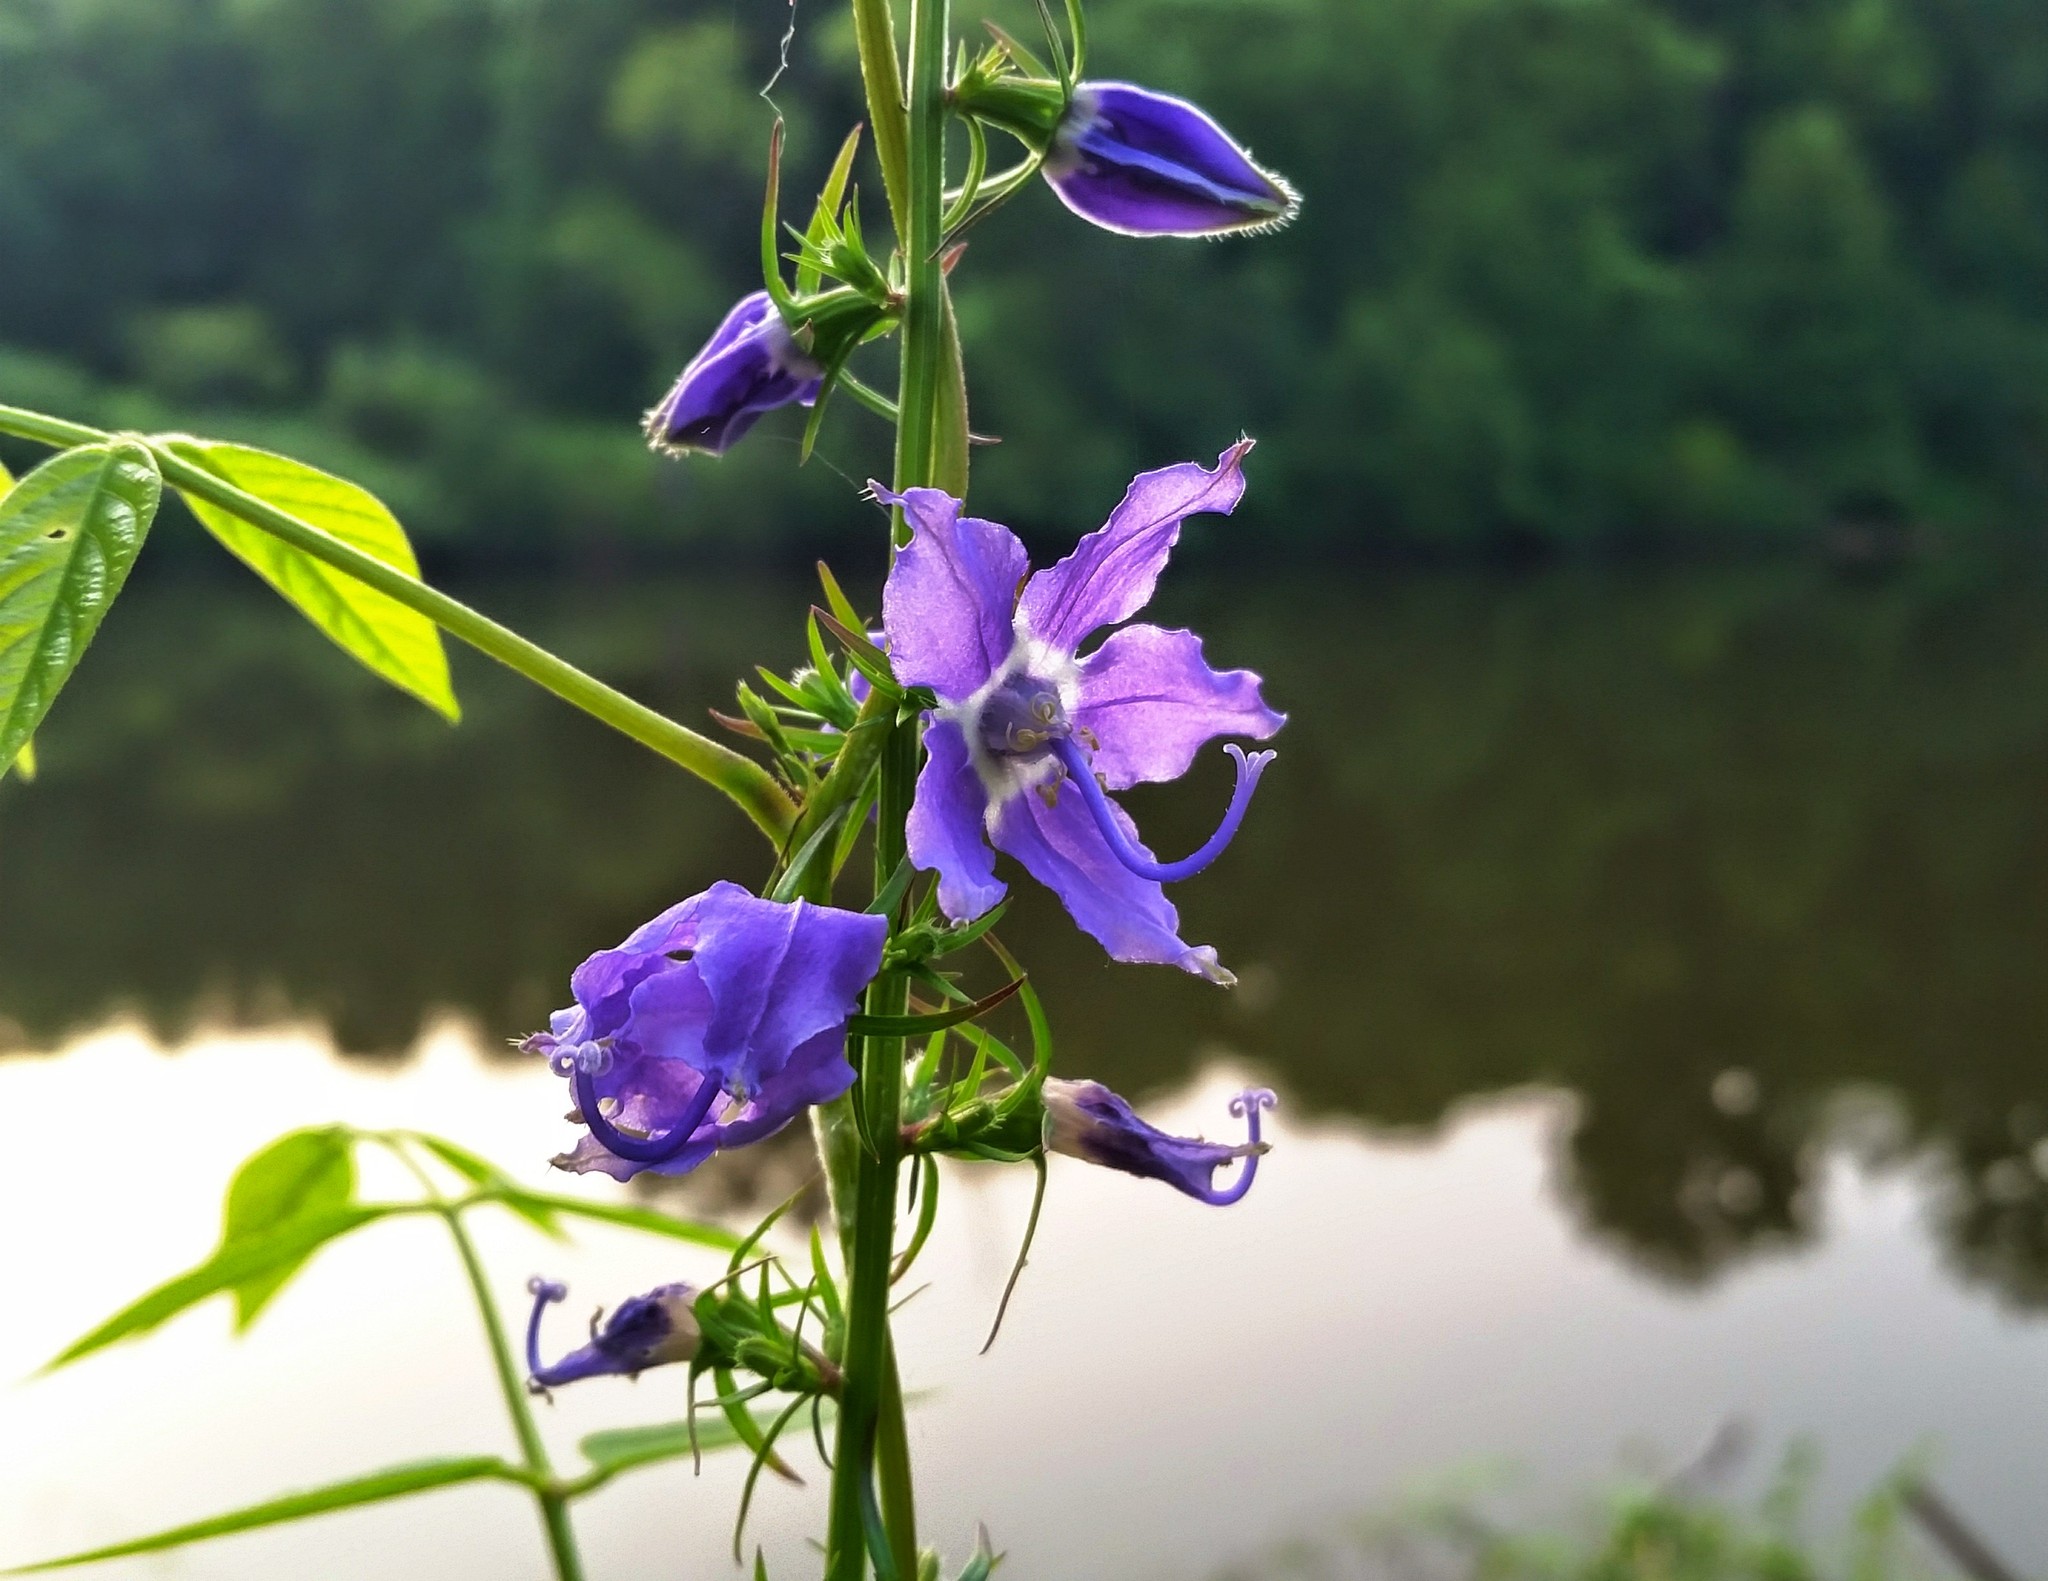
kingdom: Plantae
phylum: Tracheophyta
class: Magnoliopsida
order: Asterales
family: Campanulaceae
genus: Campanulastrum
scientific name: Campanulastrum americanum
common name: American bellflower
